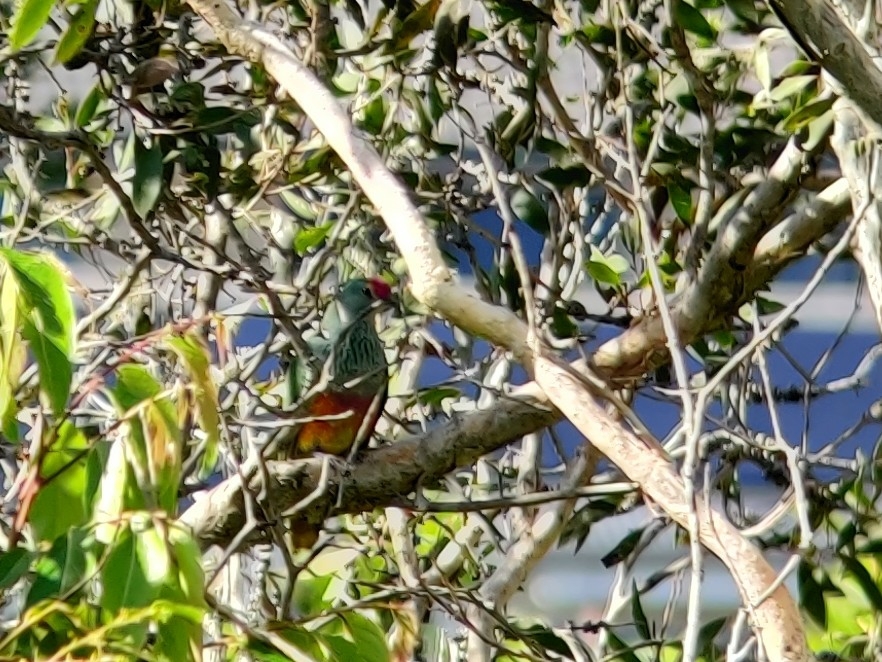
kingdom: Animalia
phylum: Chordata
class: Aves
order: Columbiformes
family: Columbidae
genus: Ptilinopus
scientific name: Ptilinopus regina
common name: Rose-crowned fruit dove
